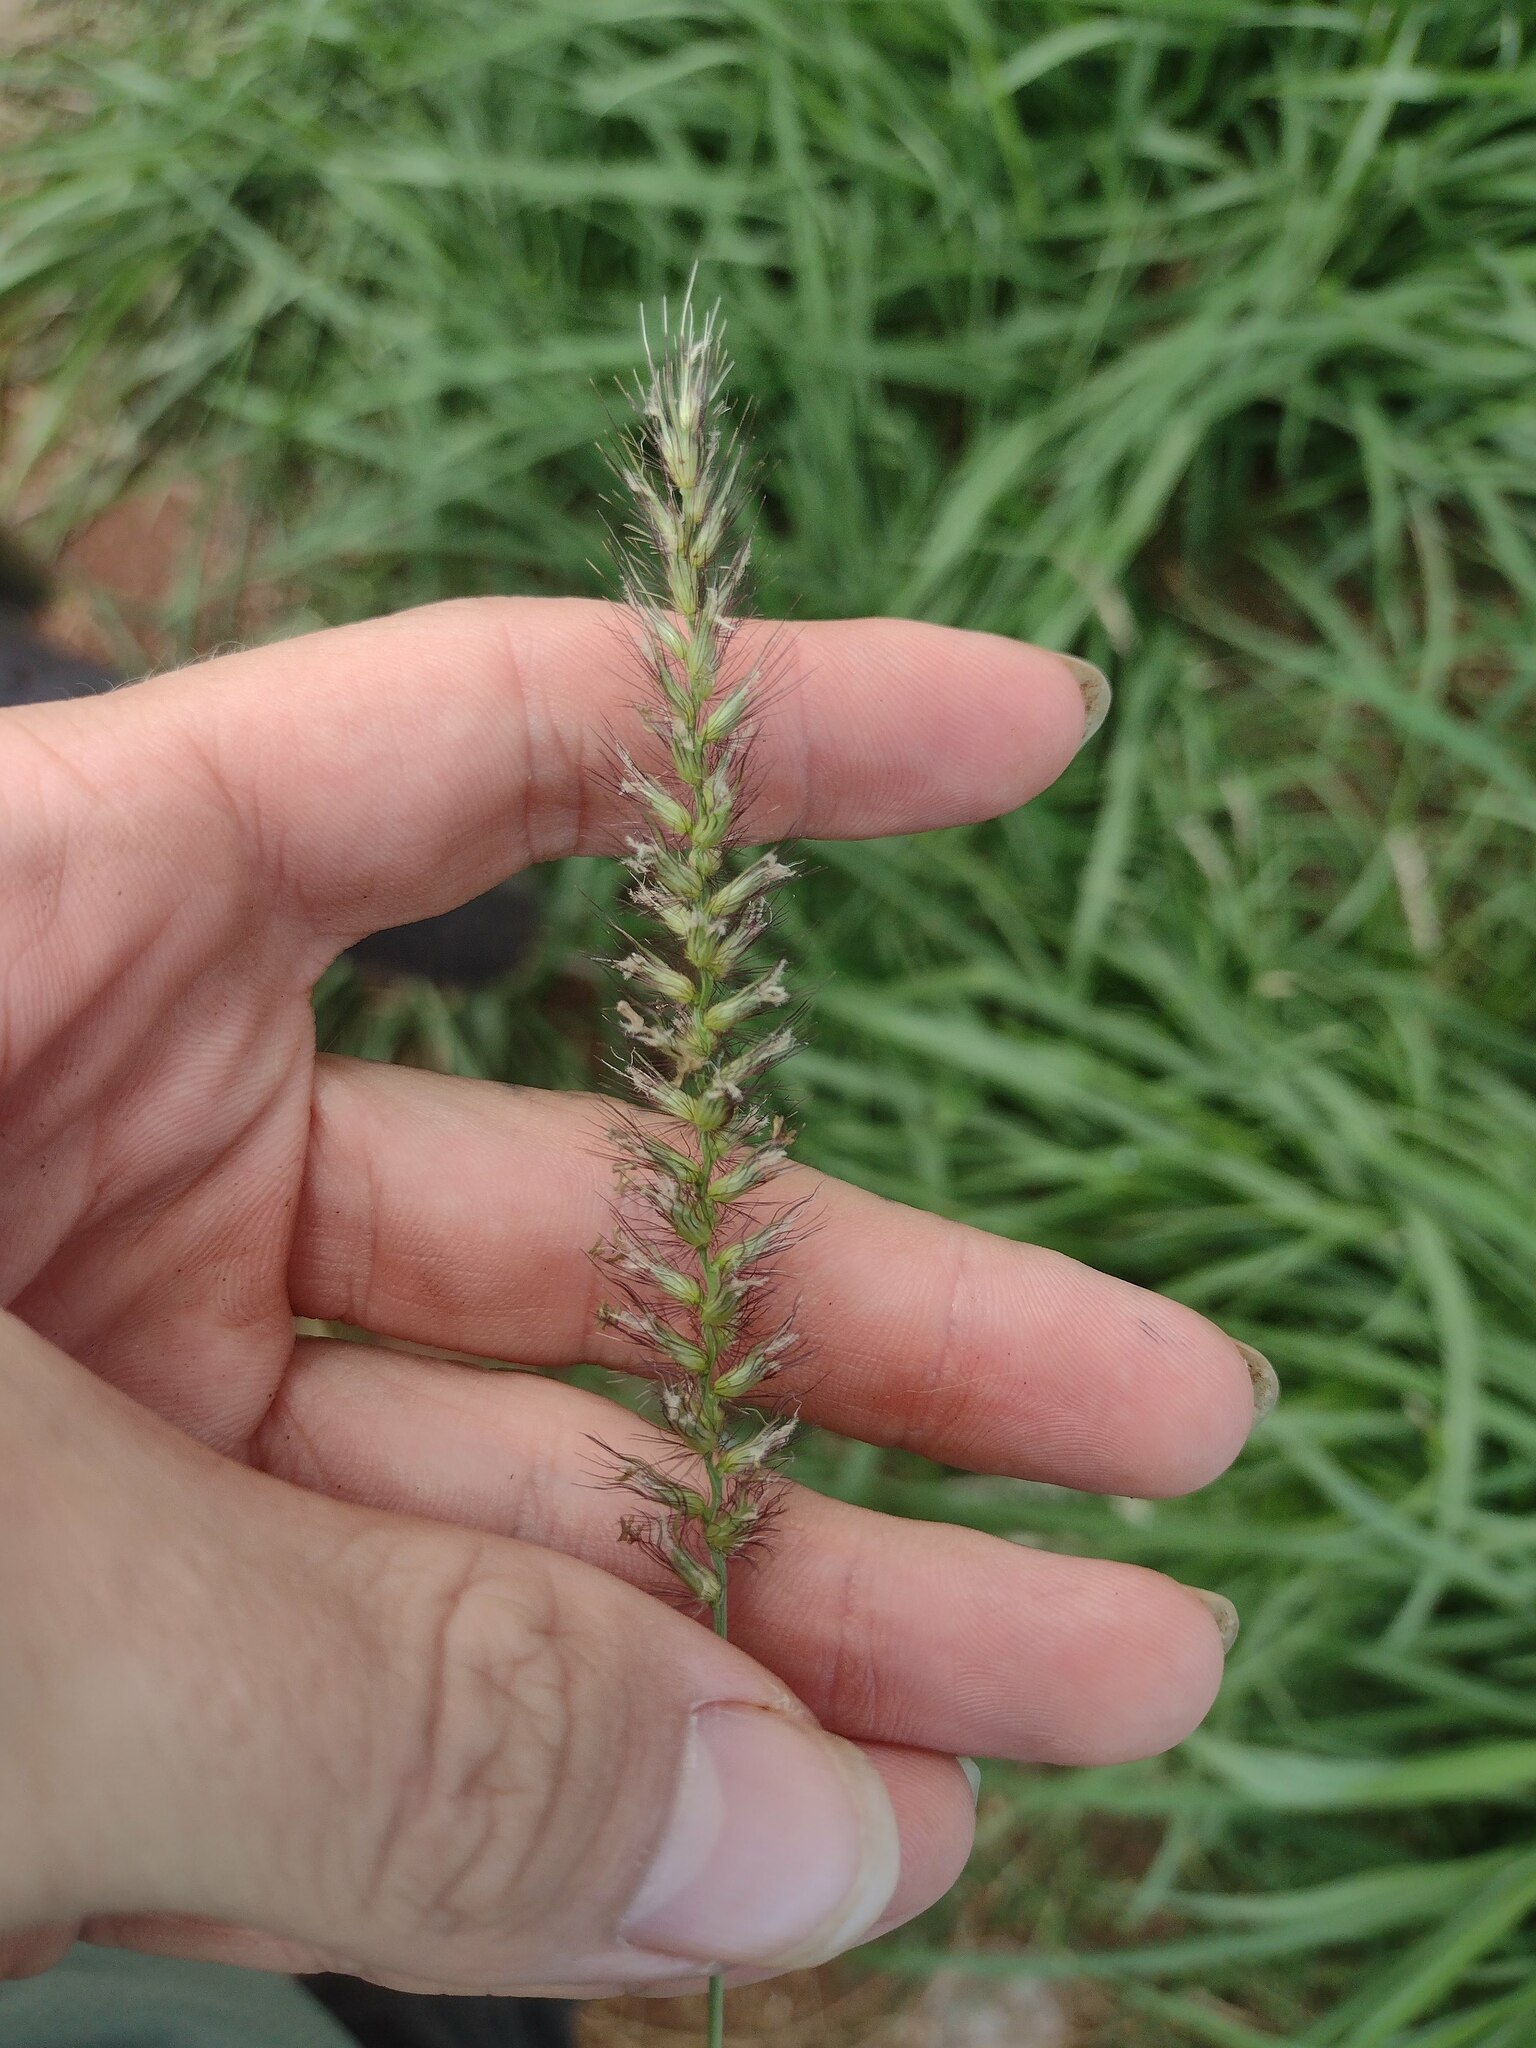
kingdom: Plantae
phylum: Tracheophyta
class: Liliopsida
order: Poales
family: Poaceae
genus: Cenchrus
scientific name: Cenchrus ciliaris
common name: Buffelgrass
